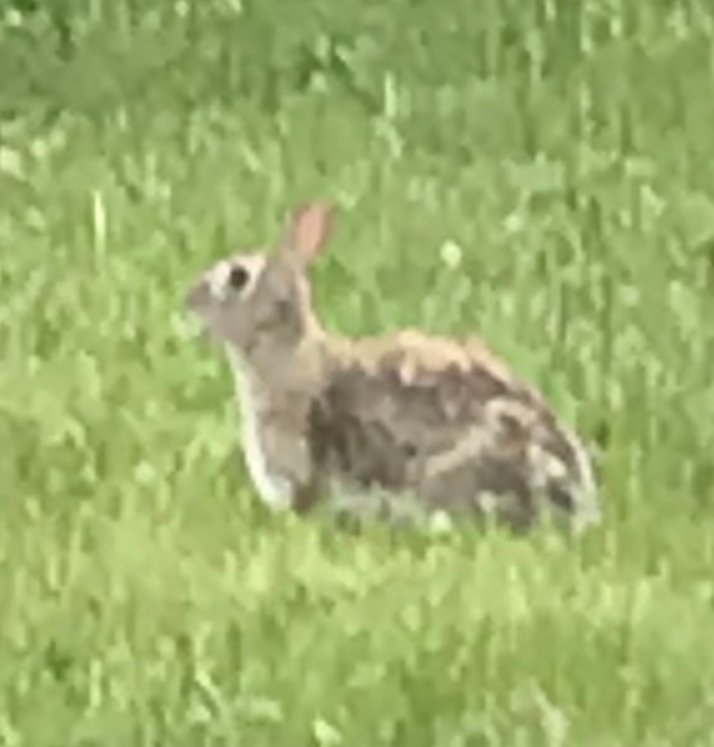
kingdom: Animalia
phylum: Chordata
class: Mammalia
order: Lagomorpha
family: Leporidae
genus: Sylvilagus
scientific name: Sylvilagus floridanus
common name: Eastern cottontail
